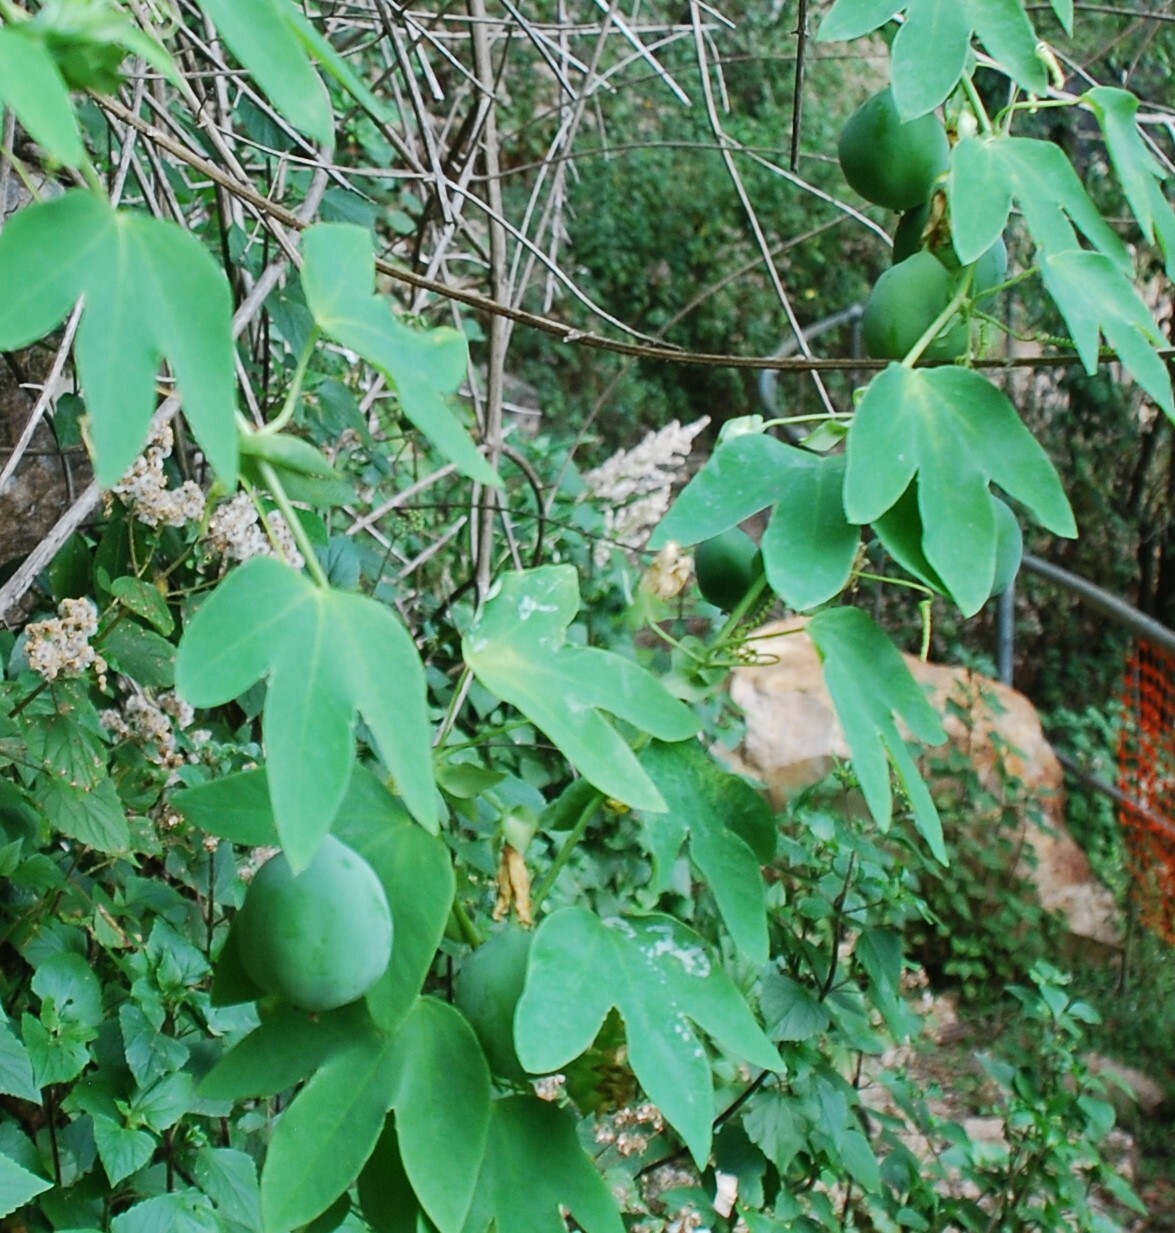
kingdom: Plantae
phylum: Tracheophyta
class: Magnoliopsida
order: Malpighiales
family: Passifloraceae
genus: Passiflora
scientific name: Passiflora subpeltata
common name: White passionflower
